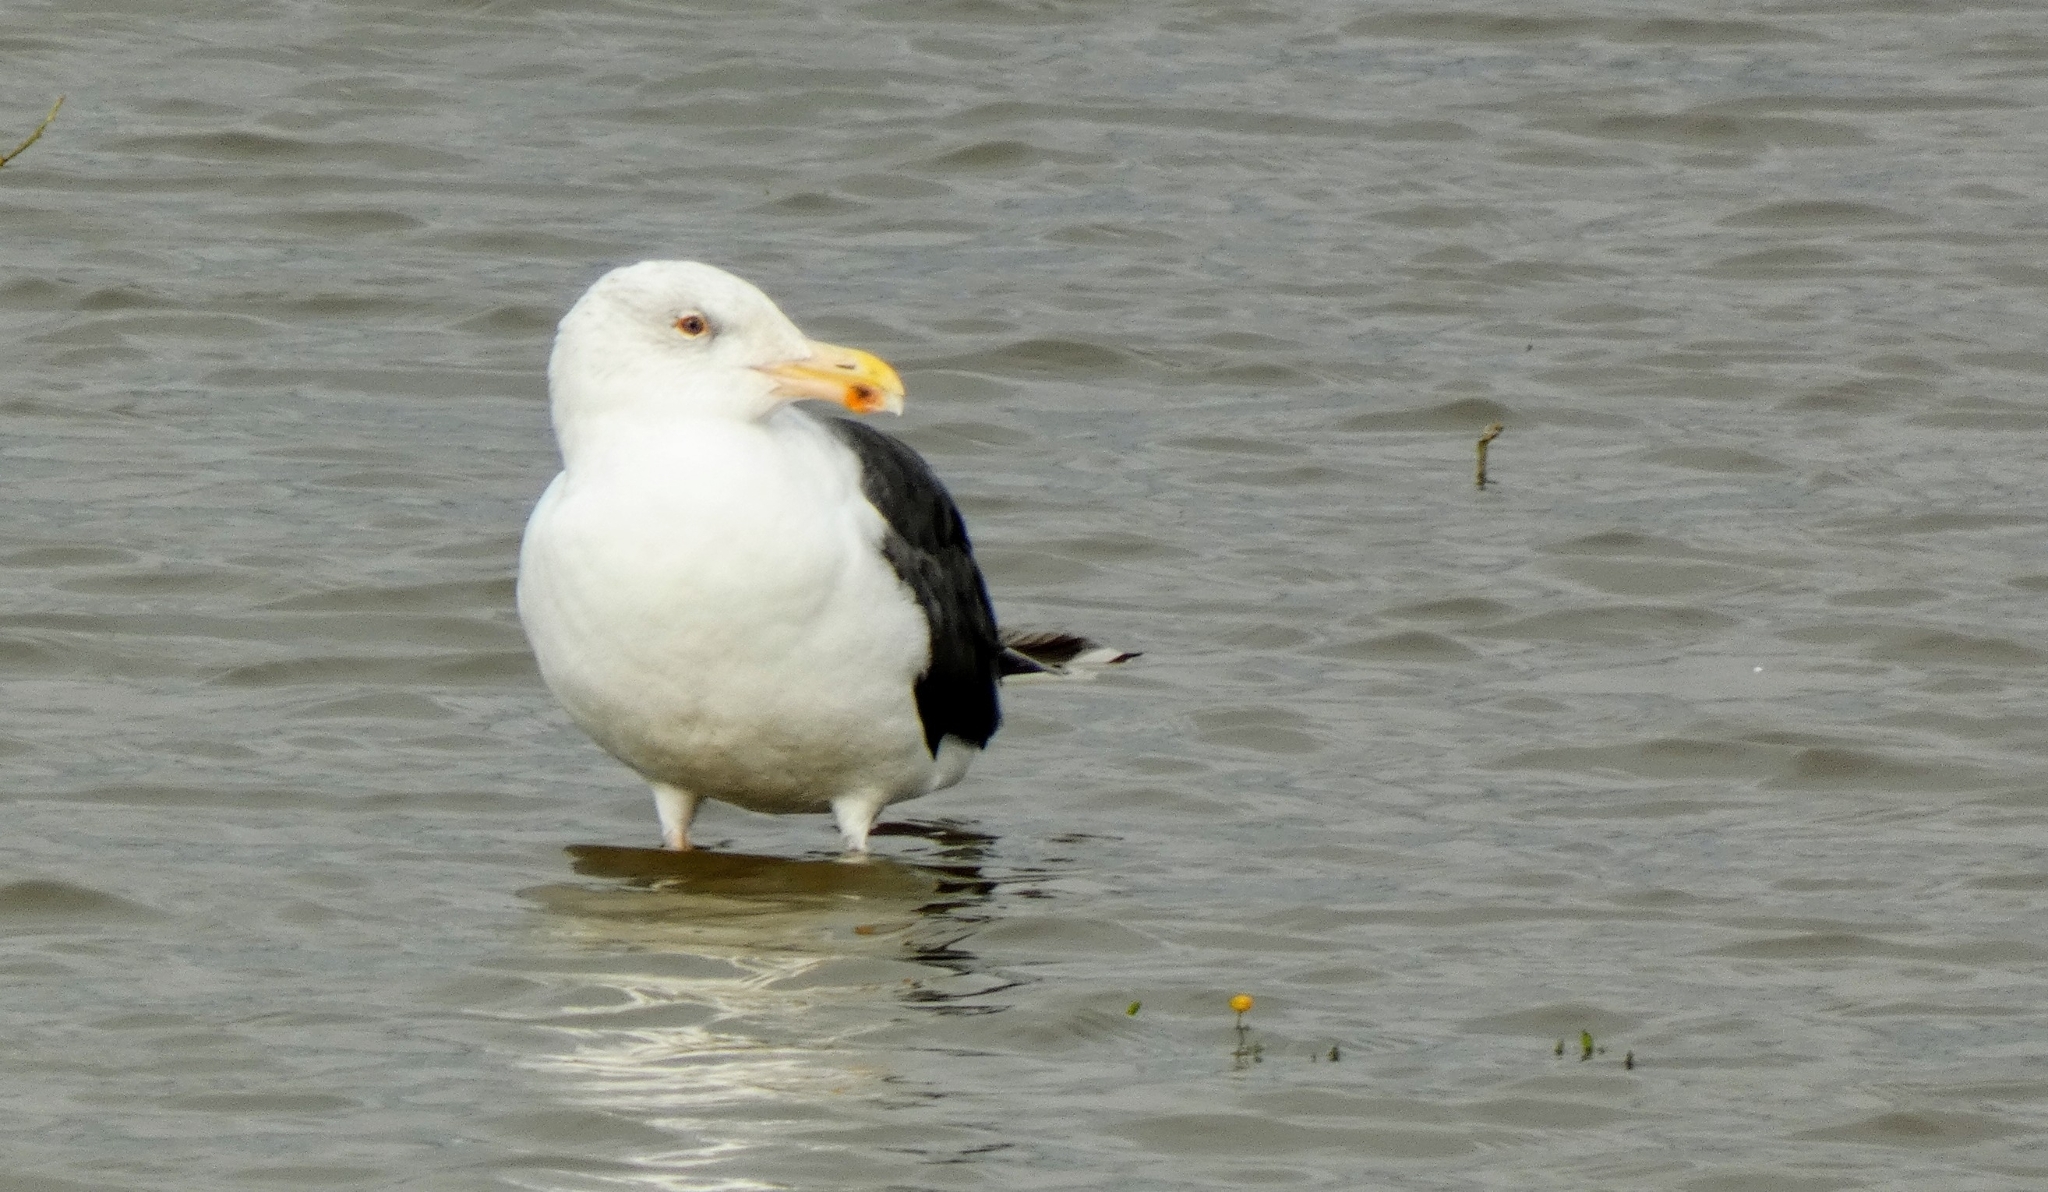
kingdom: Animalia
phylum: Chordata
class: Aves
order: Charadriiformes
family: Laridae
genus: Larus
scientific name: Larus marinus
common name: Great black-backed gull
